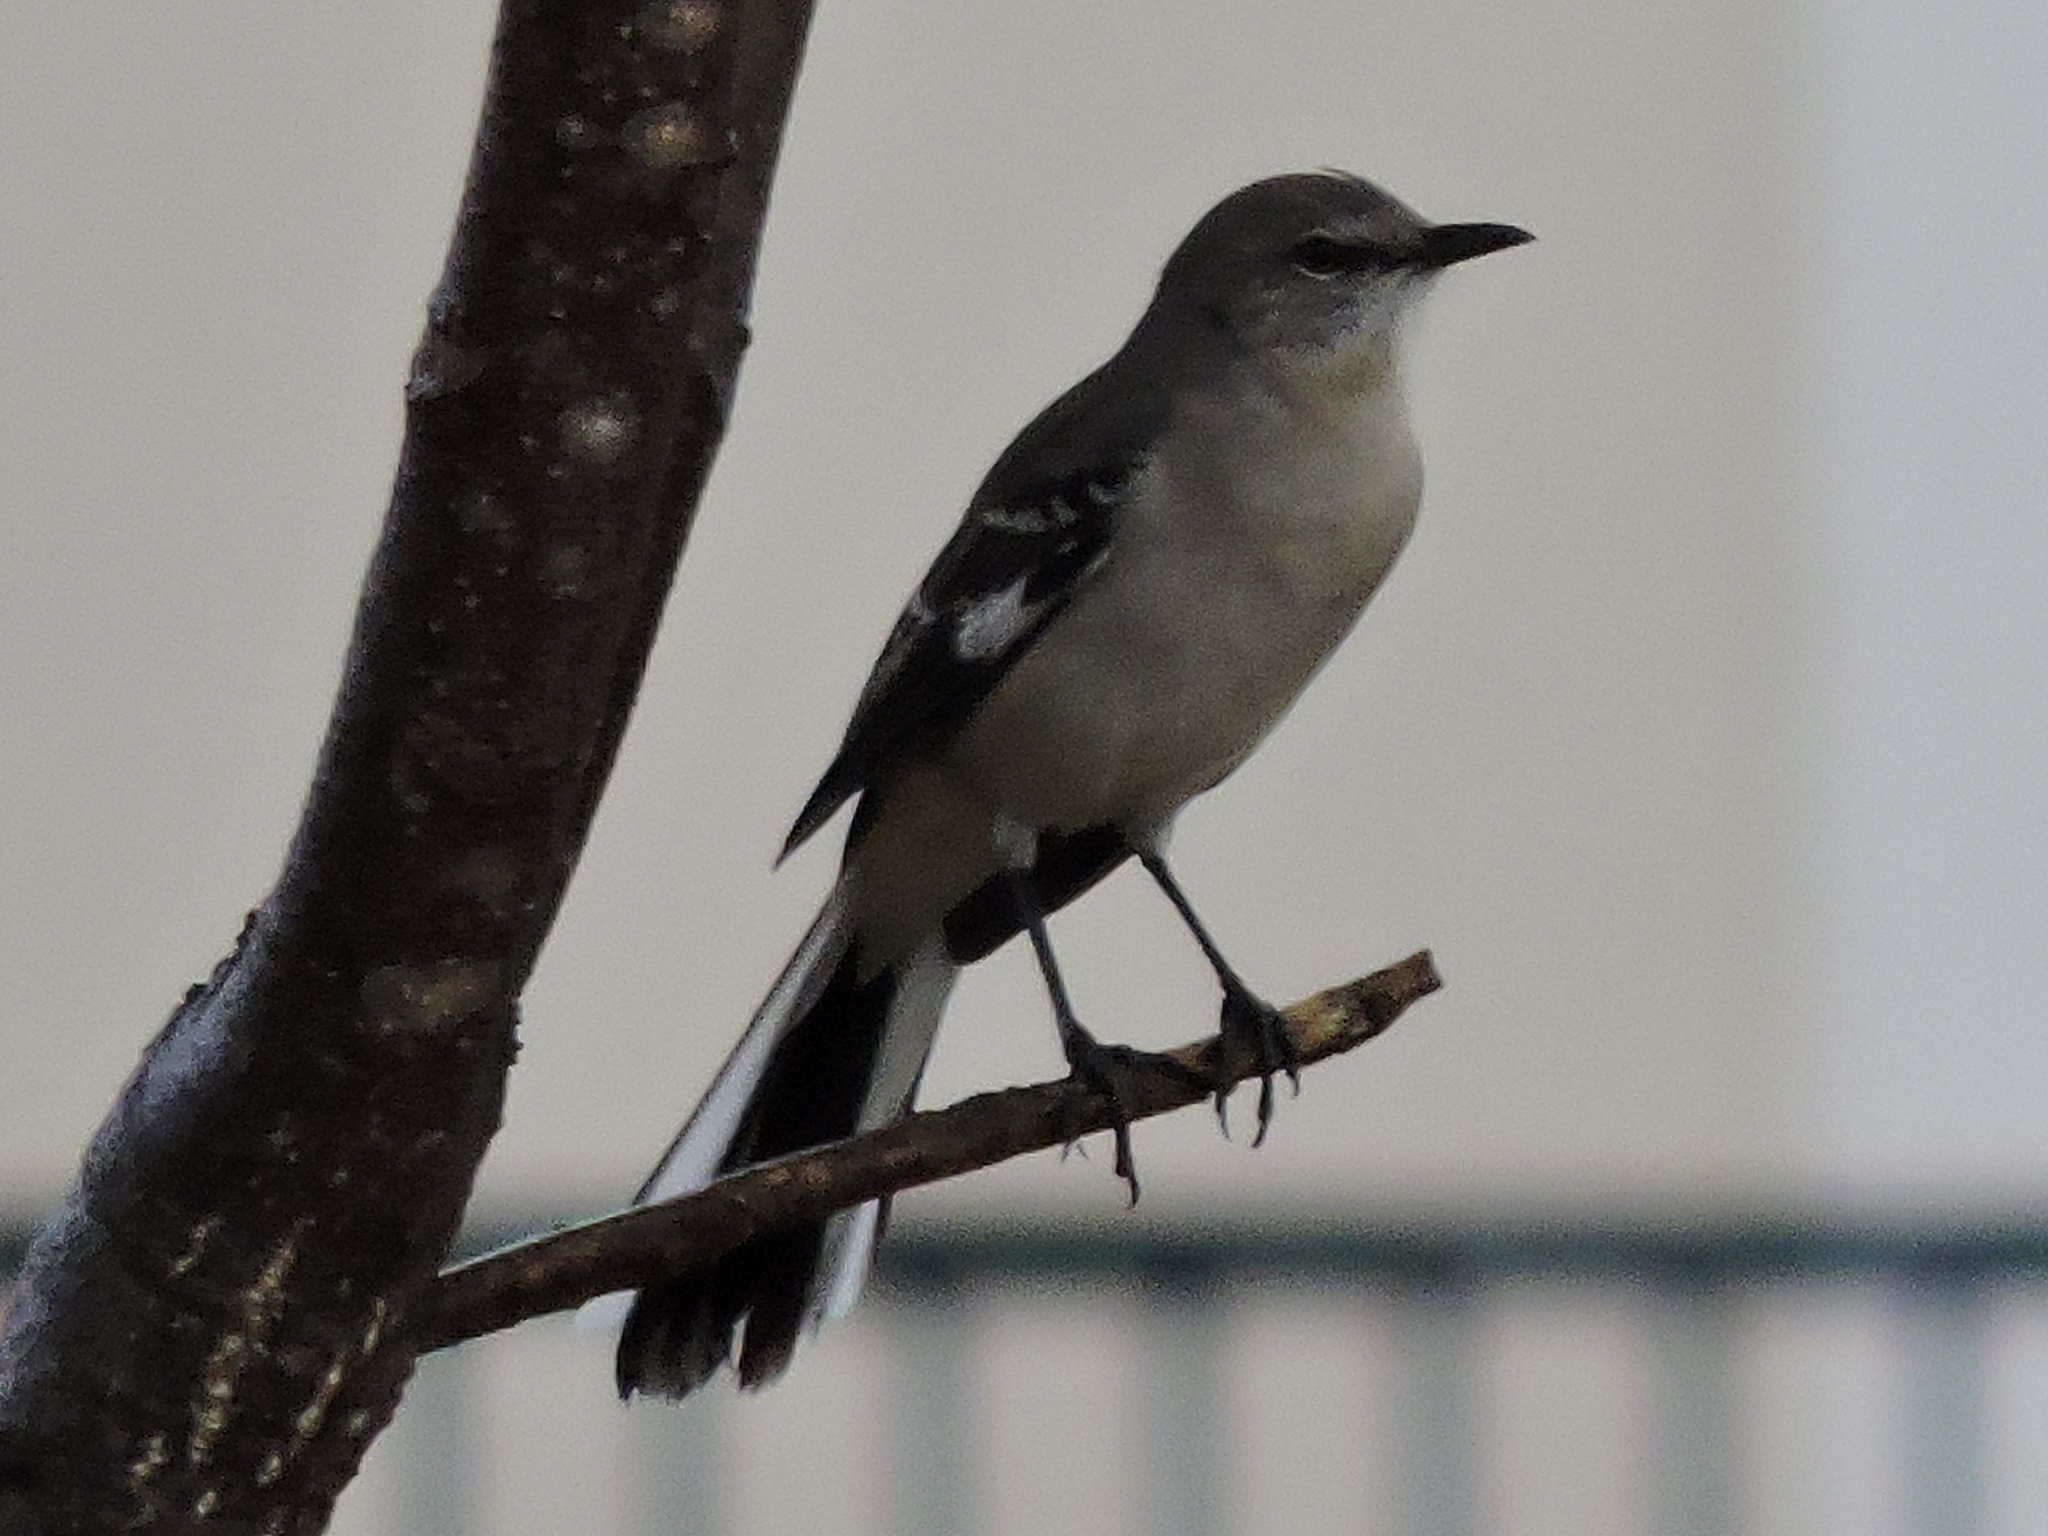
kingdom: Animalia
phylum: Chordata
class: Aves
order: Passeriformes
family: Mimidae
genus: Mimus
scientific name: Mimus polyglottos
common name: Northern mockingbird
